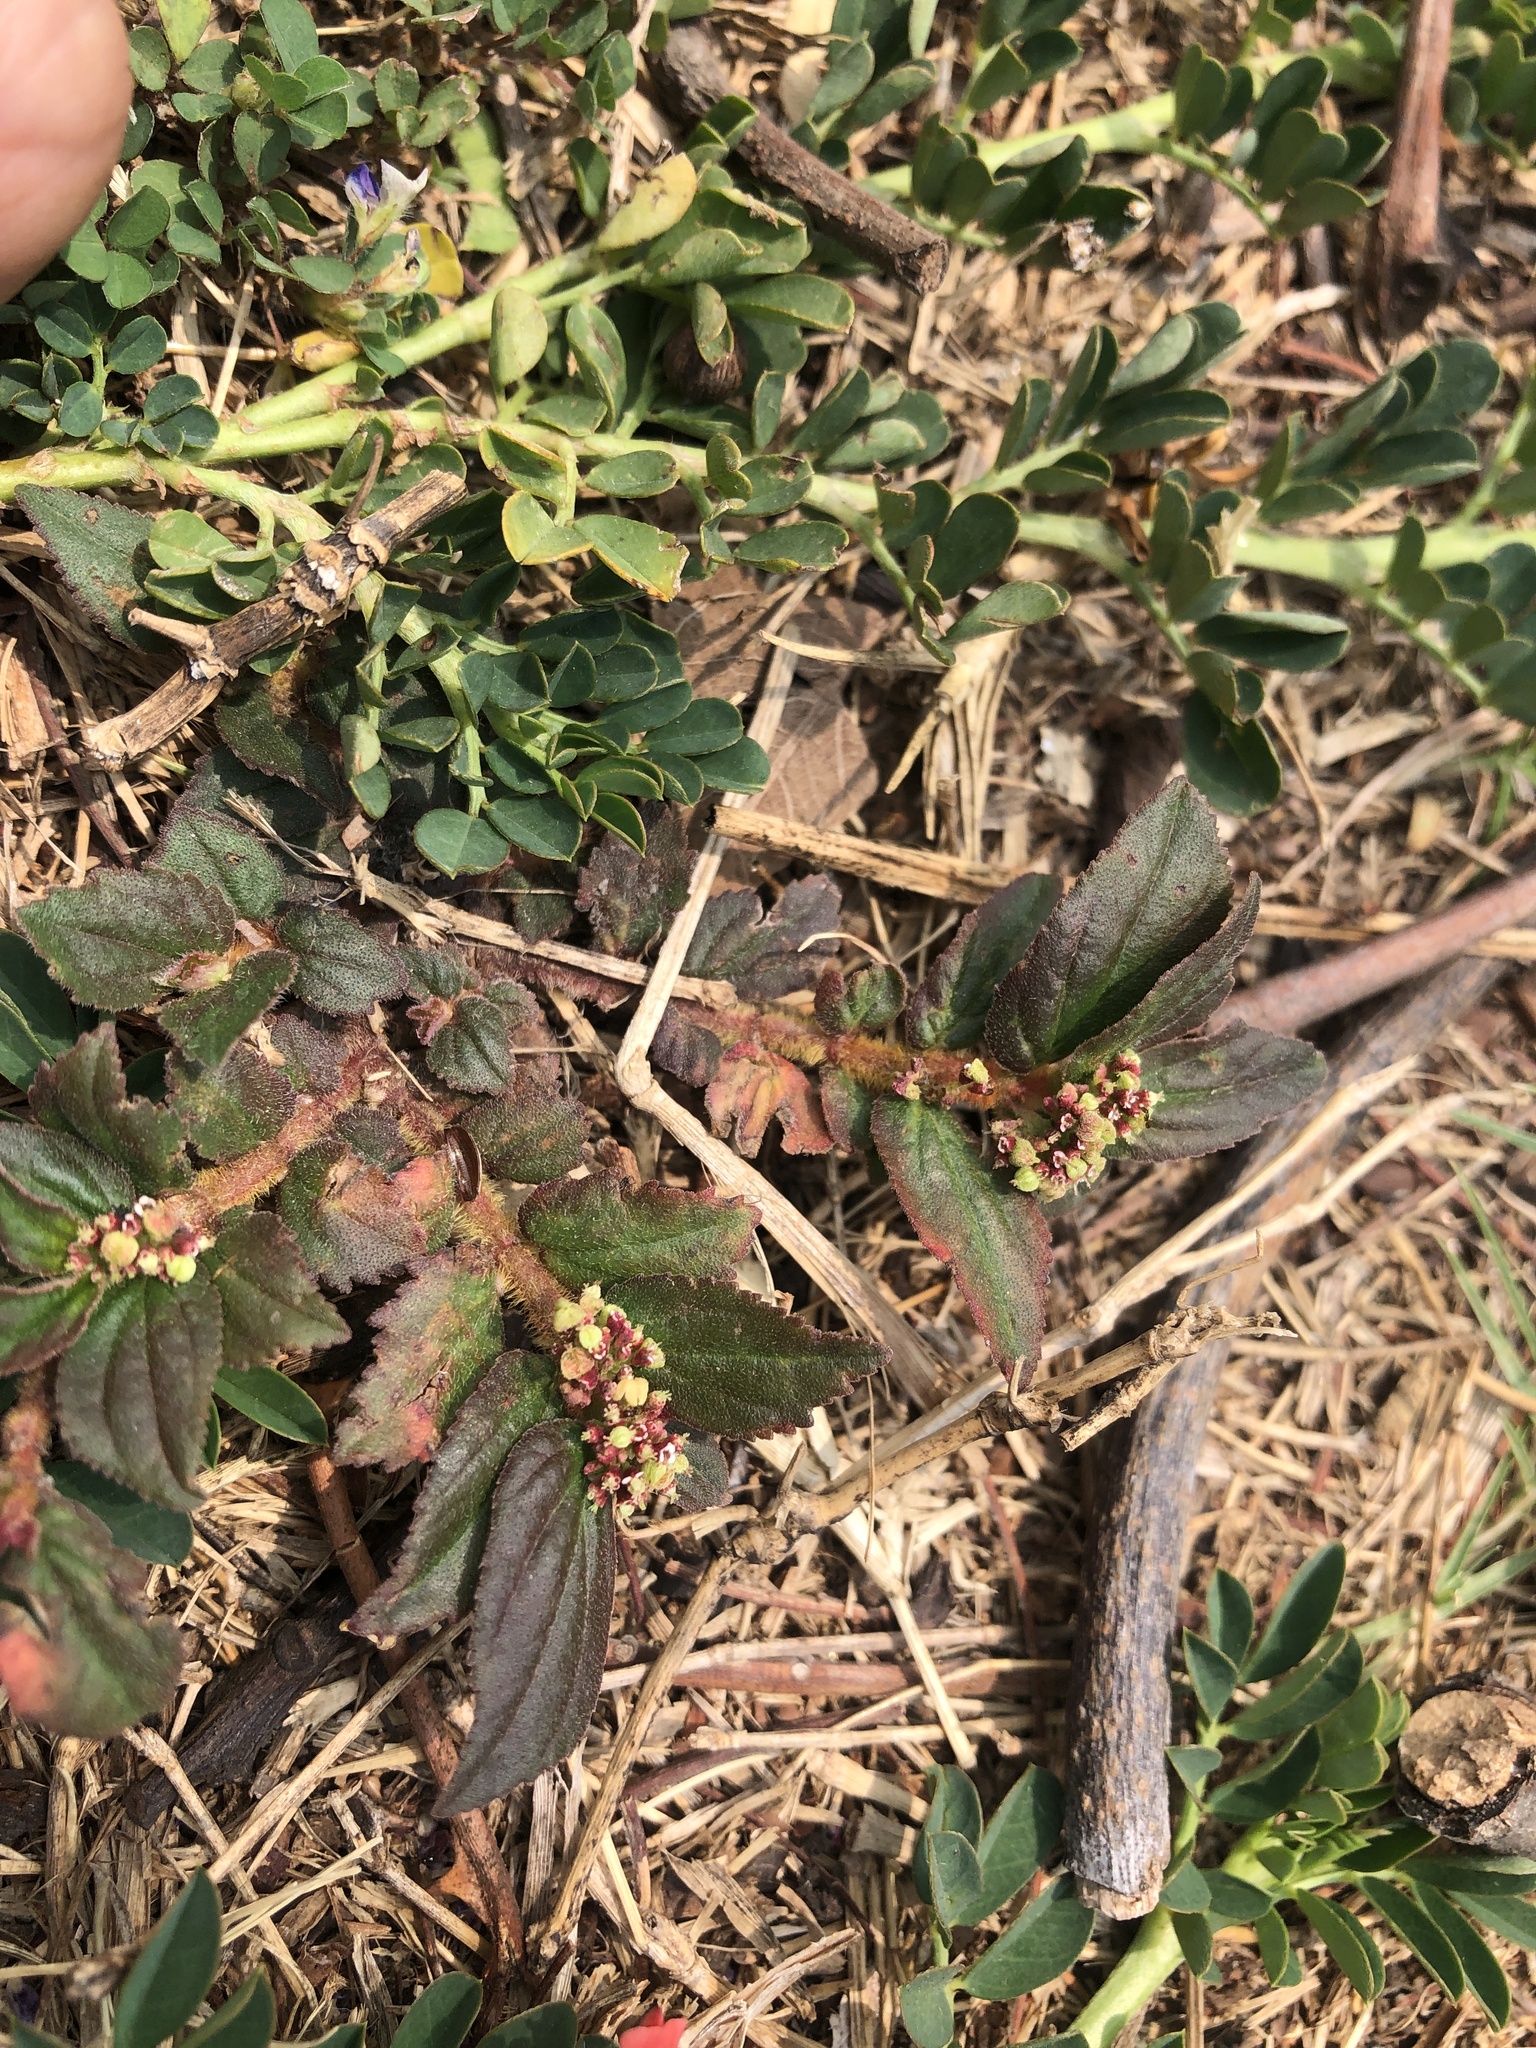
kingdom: Plantae
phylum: Tracheophyta
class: Magnoliopsida
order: Malpighiales
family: Euphorbiaceae
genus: Euphorbia
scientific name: Euphorbia hirta
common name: Pillpod sandmat
